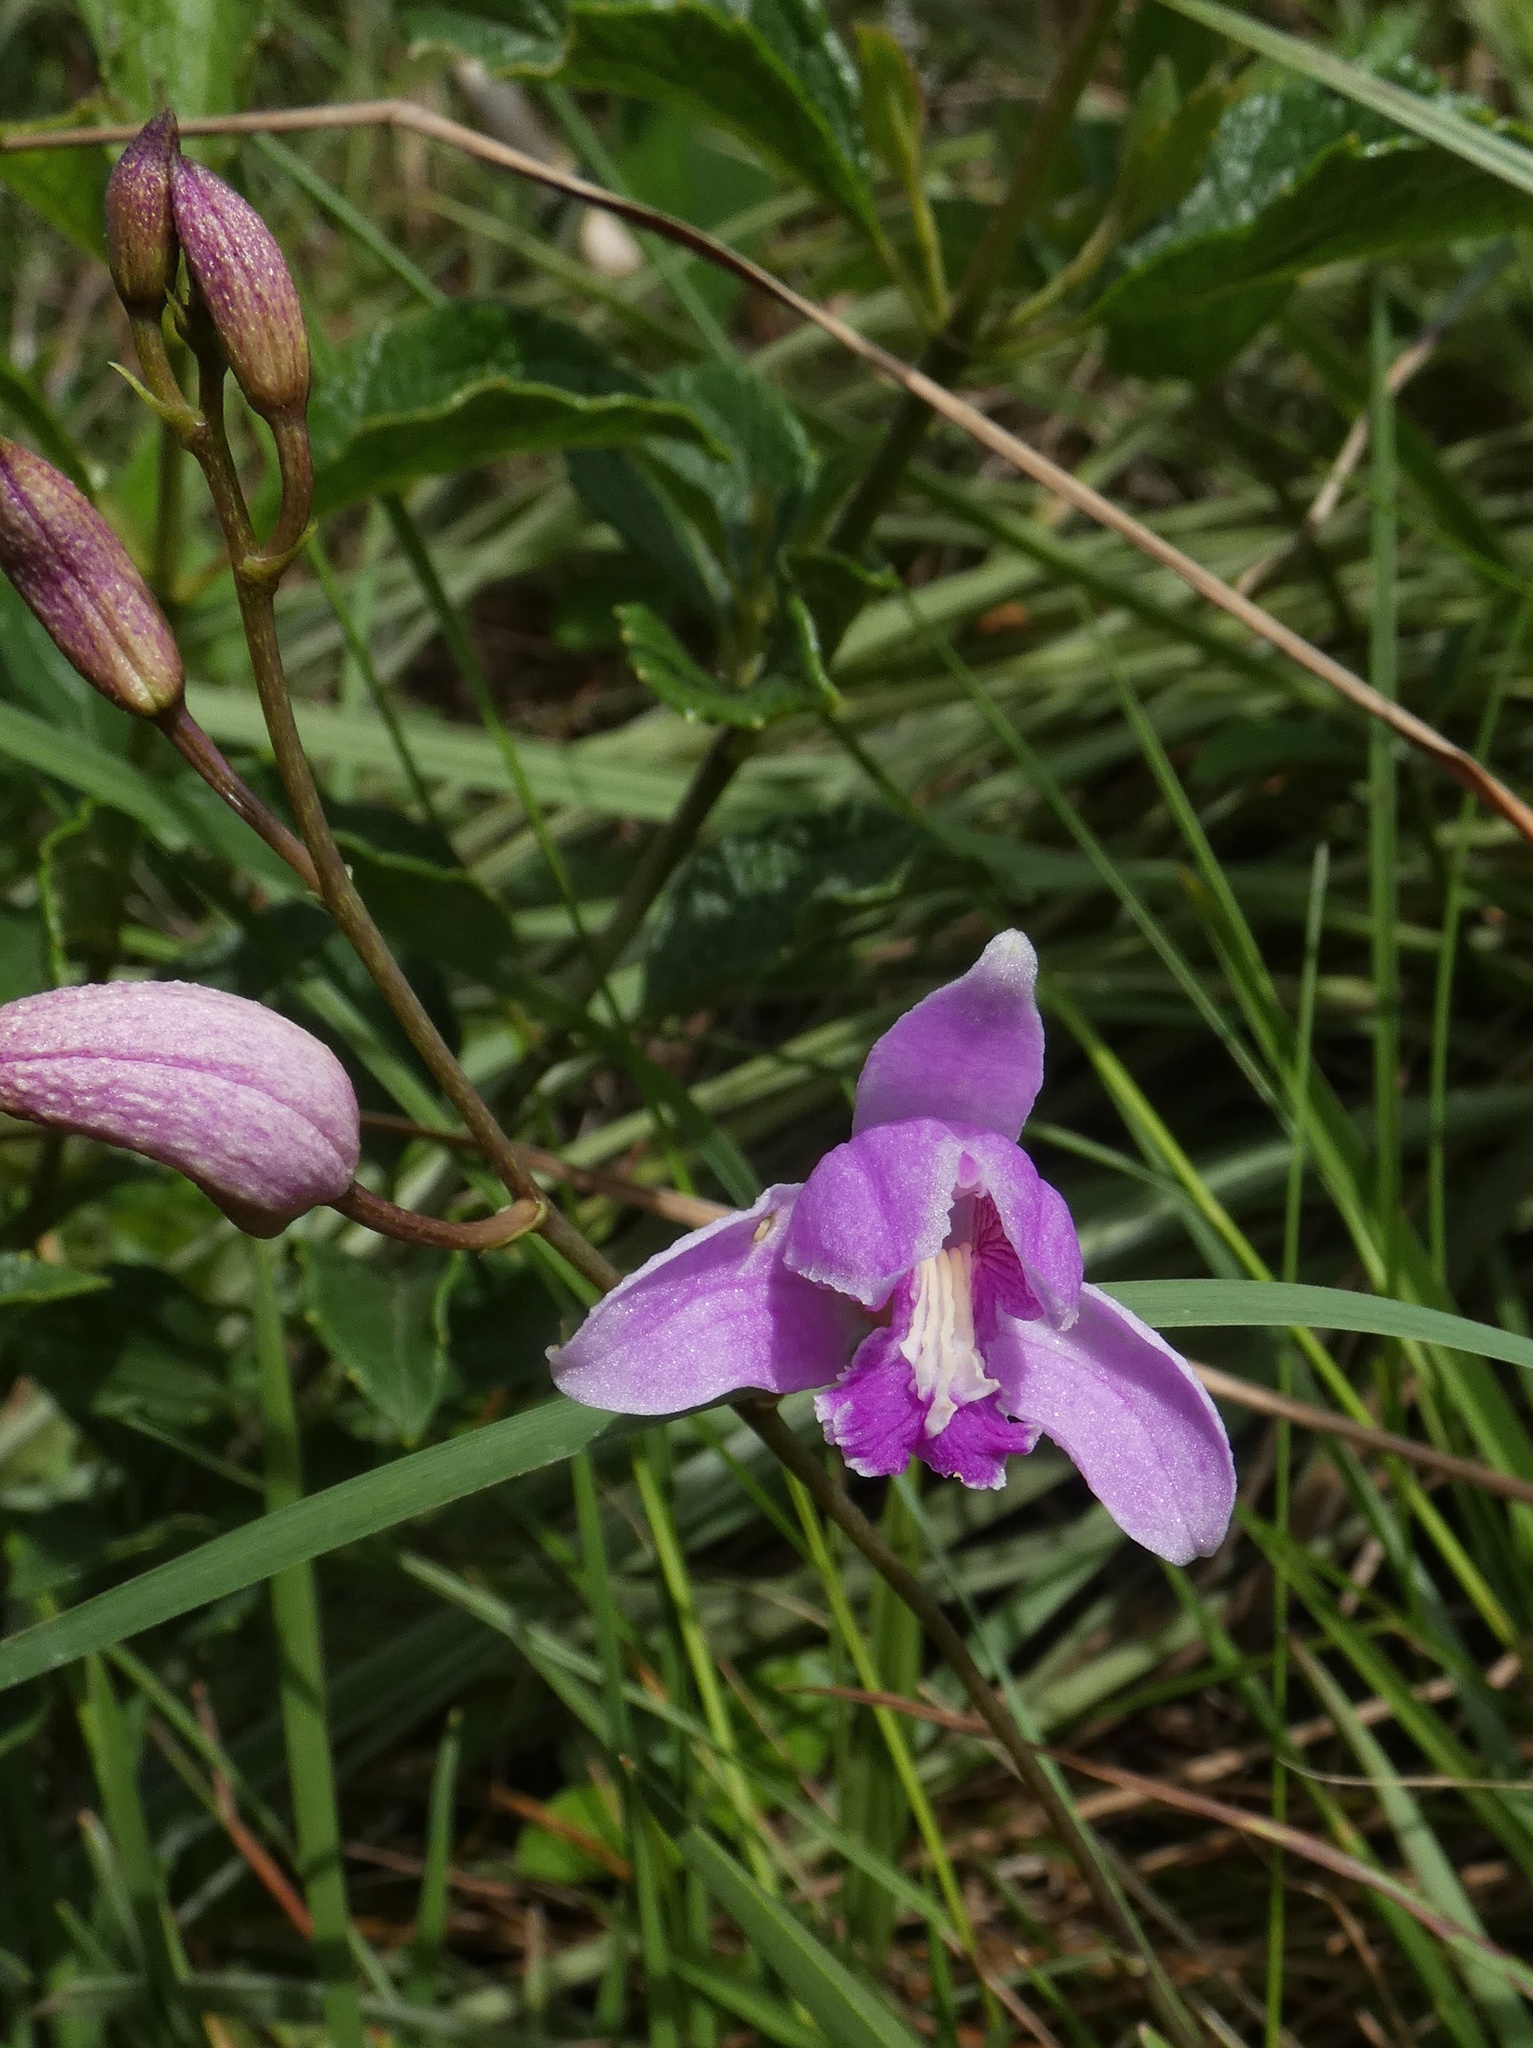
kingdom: Plantae
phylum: Tracheophyta
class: Liliopsida
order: Asparagales
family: Orchidaceae
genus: Bletia
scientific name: Bletia purpurea
